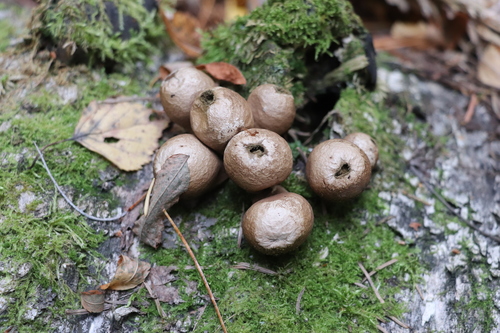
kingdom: Fungi
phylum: Basidiomycota
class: Agaricomycetes
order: Agaricales
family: Lycoperdaceae
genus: Apioperdon
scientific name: Apioperdon pyriforme
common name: Pear-shaped puffball
